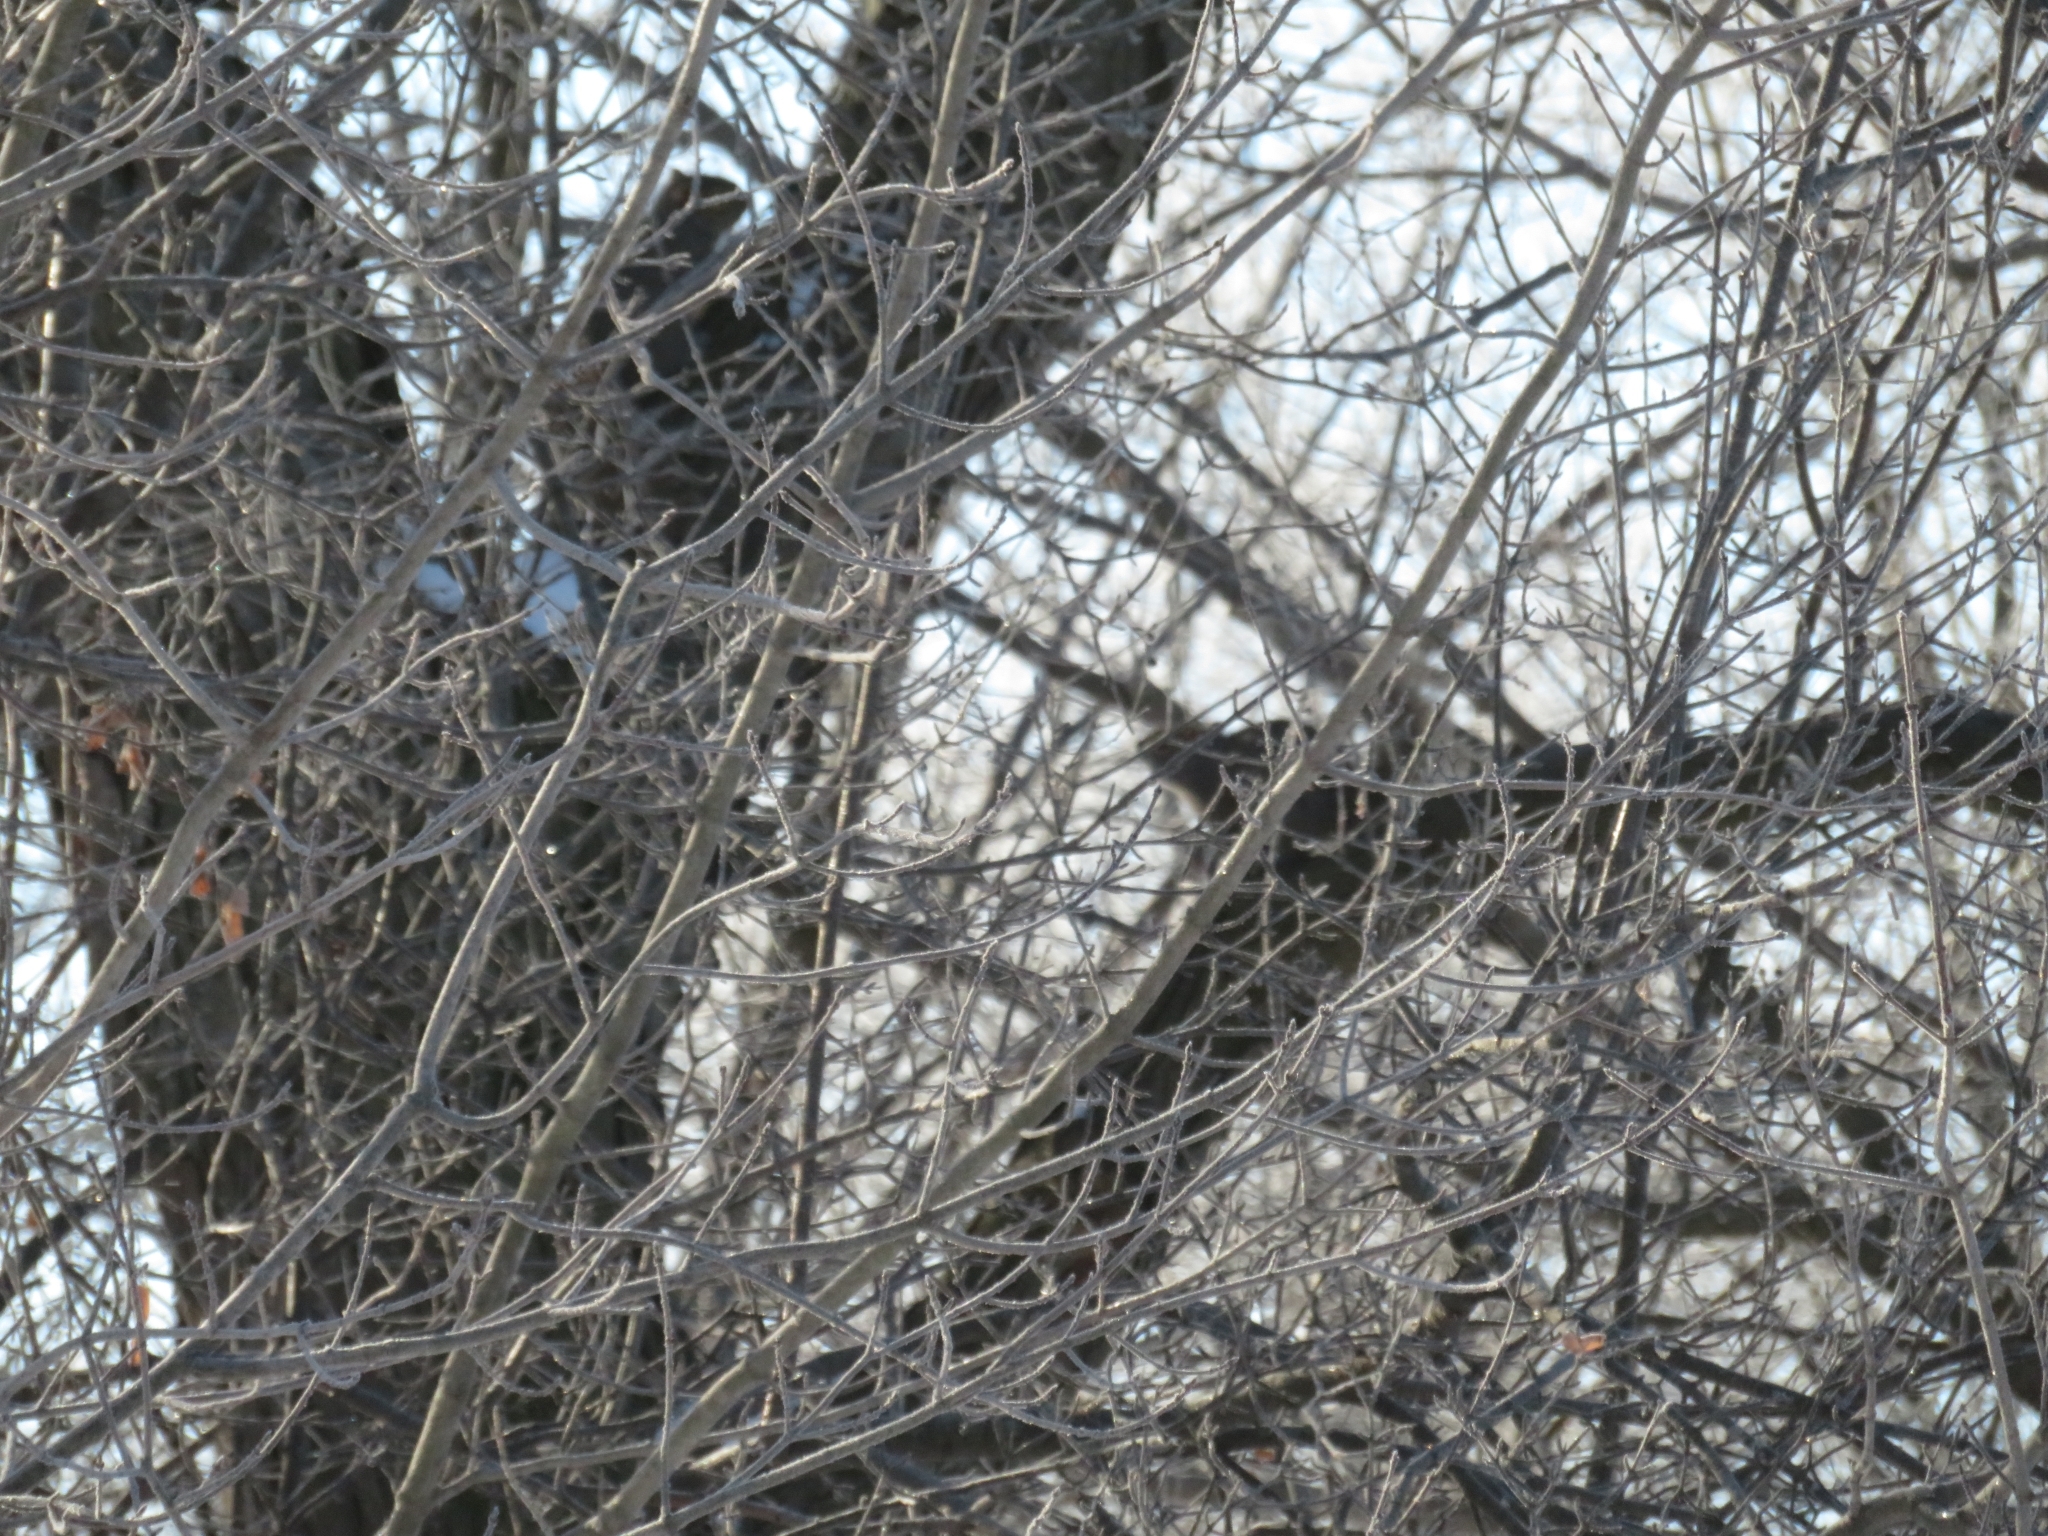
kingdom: Animalia
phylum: Chordata
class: Mammalia
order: Rodentia
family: Sciuridae
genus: Sciurus
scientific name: Sciurus carolinensis
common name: Eastern gray squirrel
